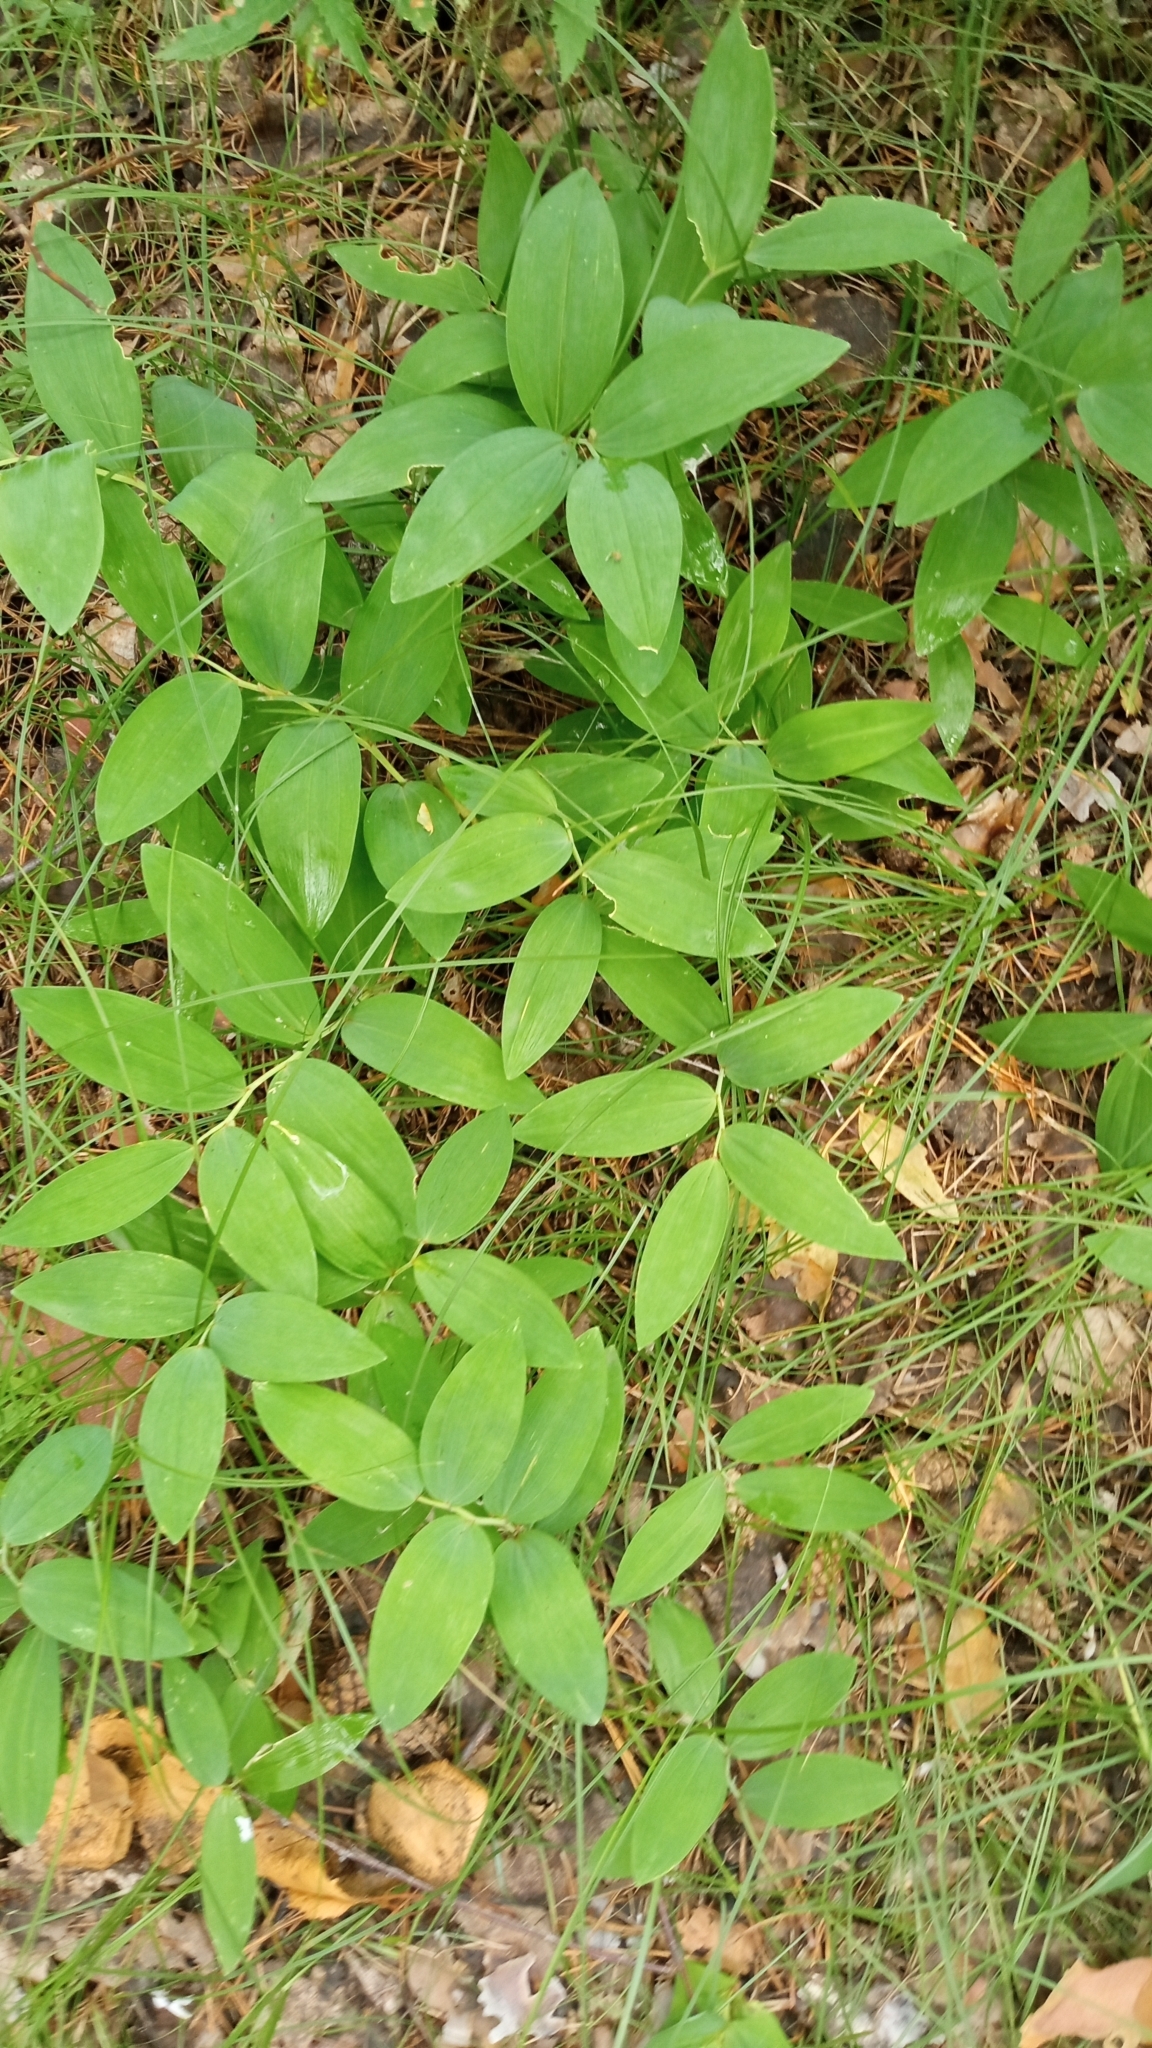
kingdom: Plantae
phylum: Tracheophyta
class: Liliopsida
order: Asparagales
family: Asparagaceae
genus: Polygonatum
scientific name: Polygonatum odoratum
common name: Angular solomon's-seal
